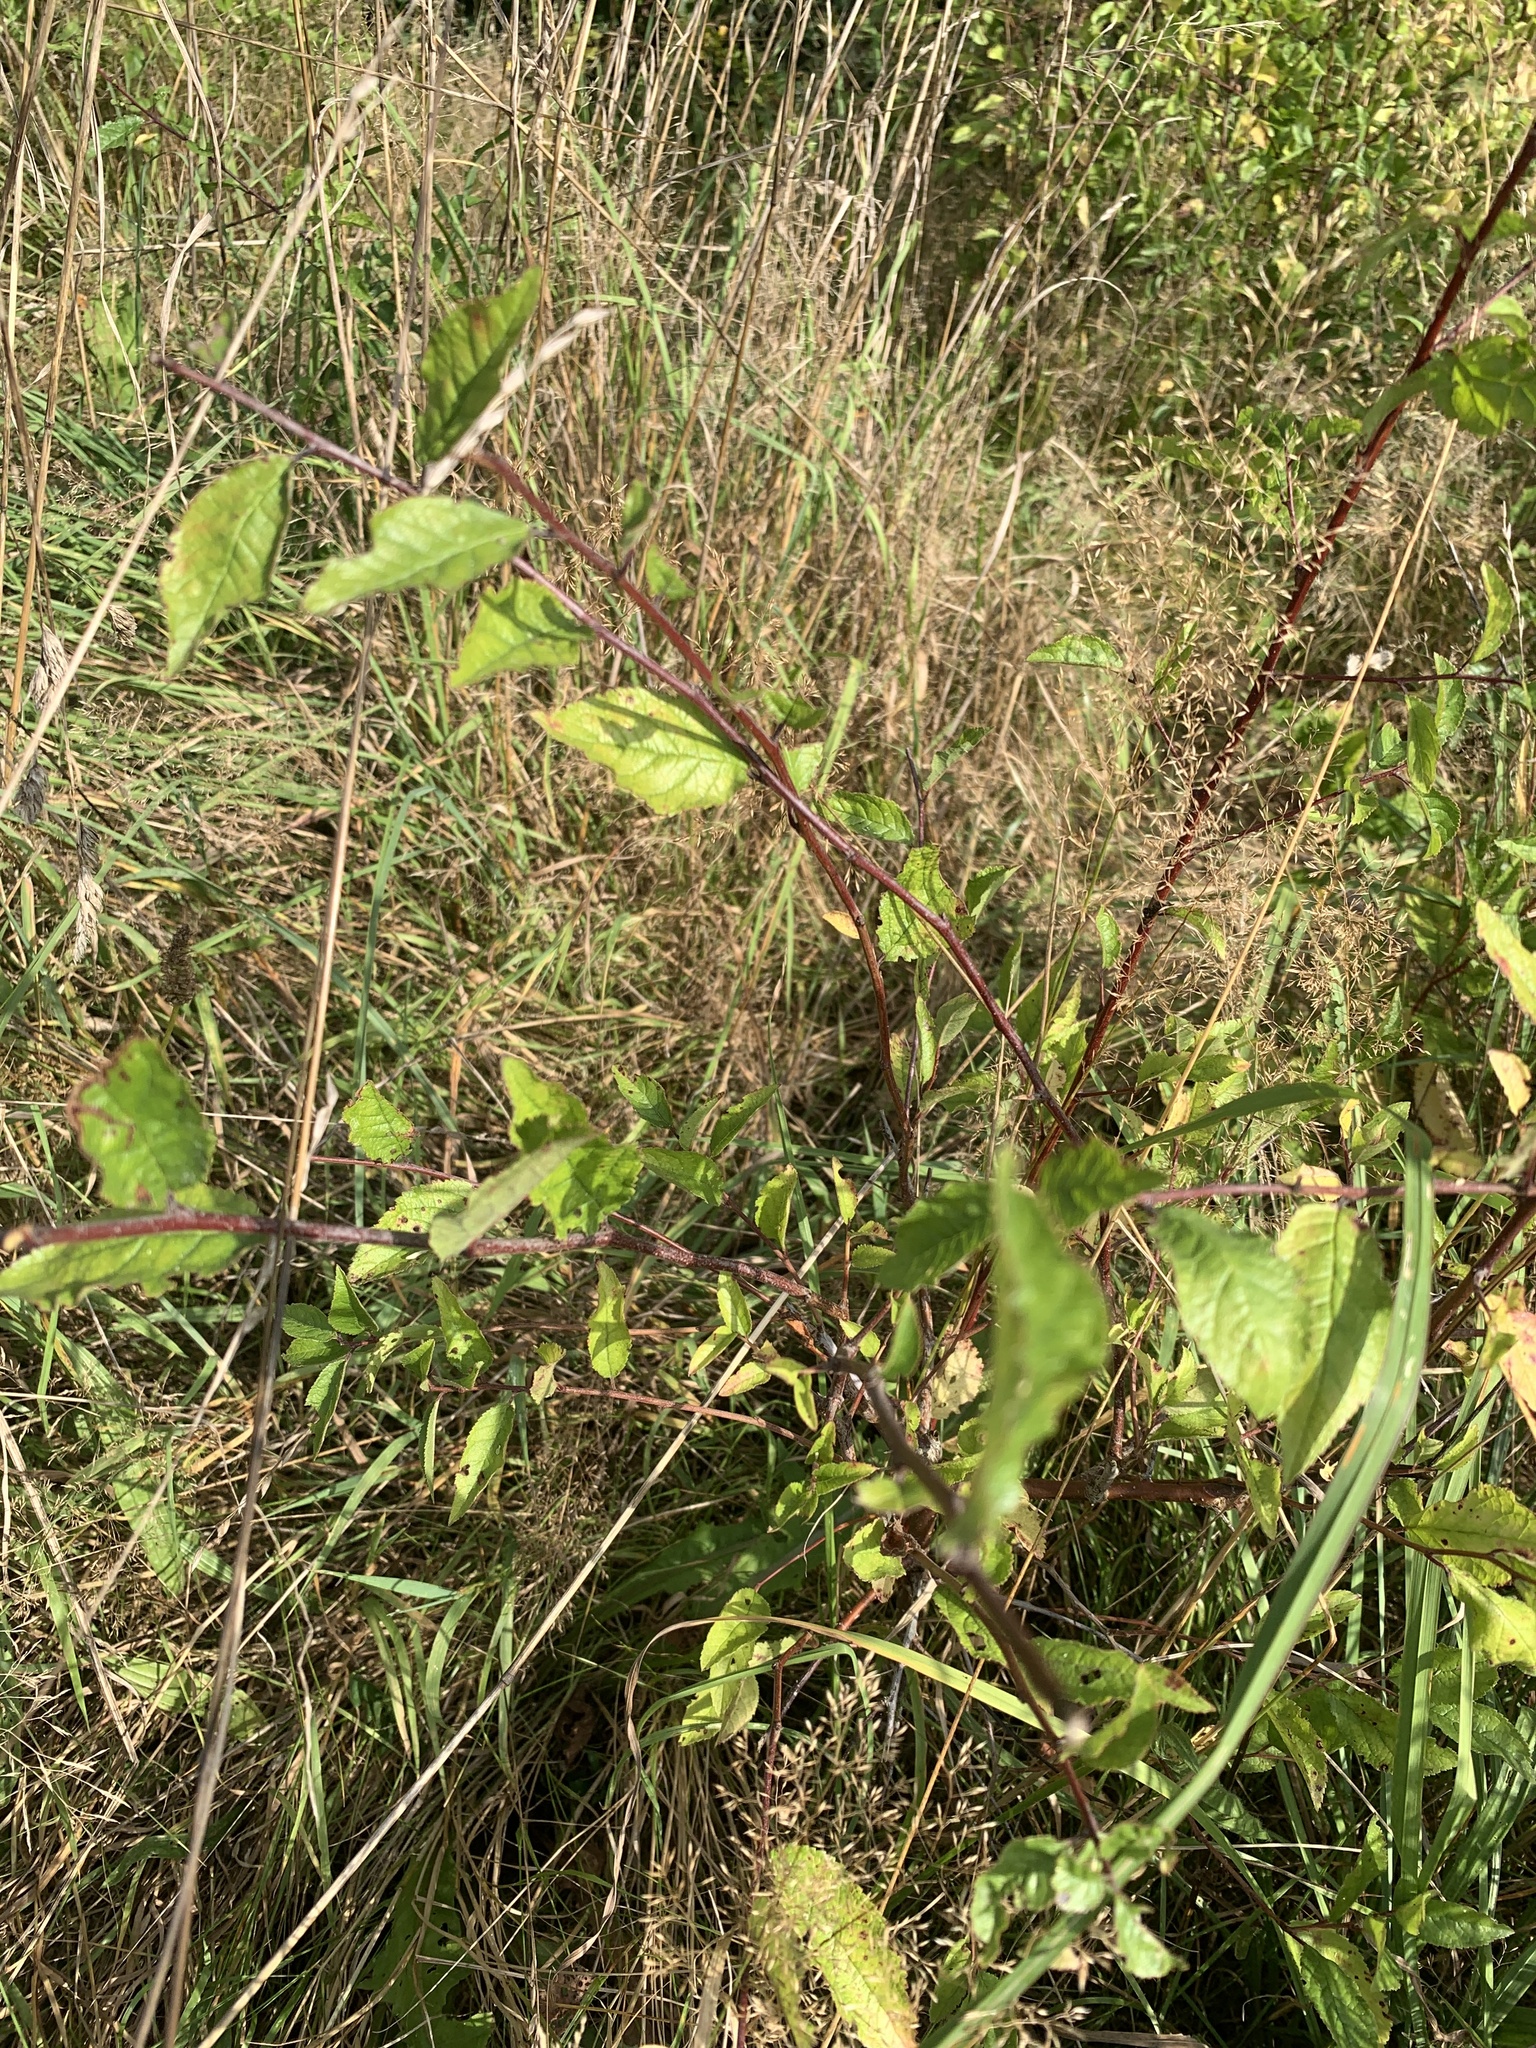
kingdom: Plantae
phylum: Tracheophyta
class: Magnoliopsida
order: Rosales
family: Rosaceae
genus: Prunus
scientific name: Prunus spinosa
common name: Blackthorn
